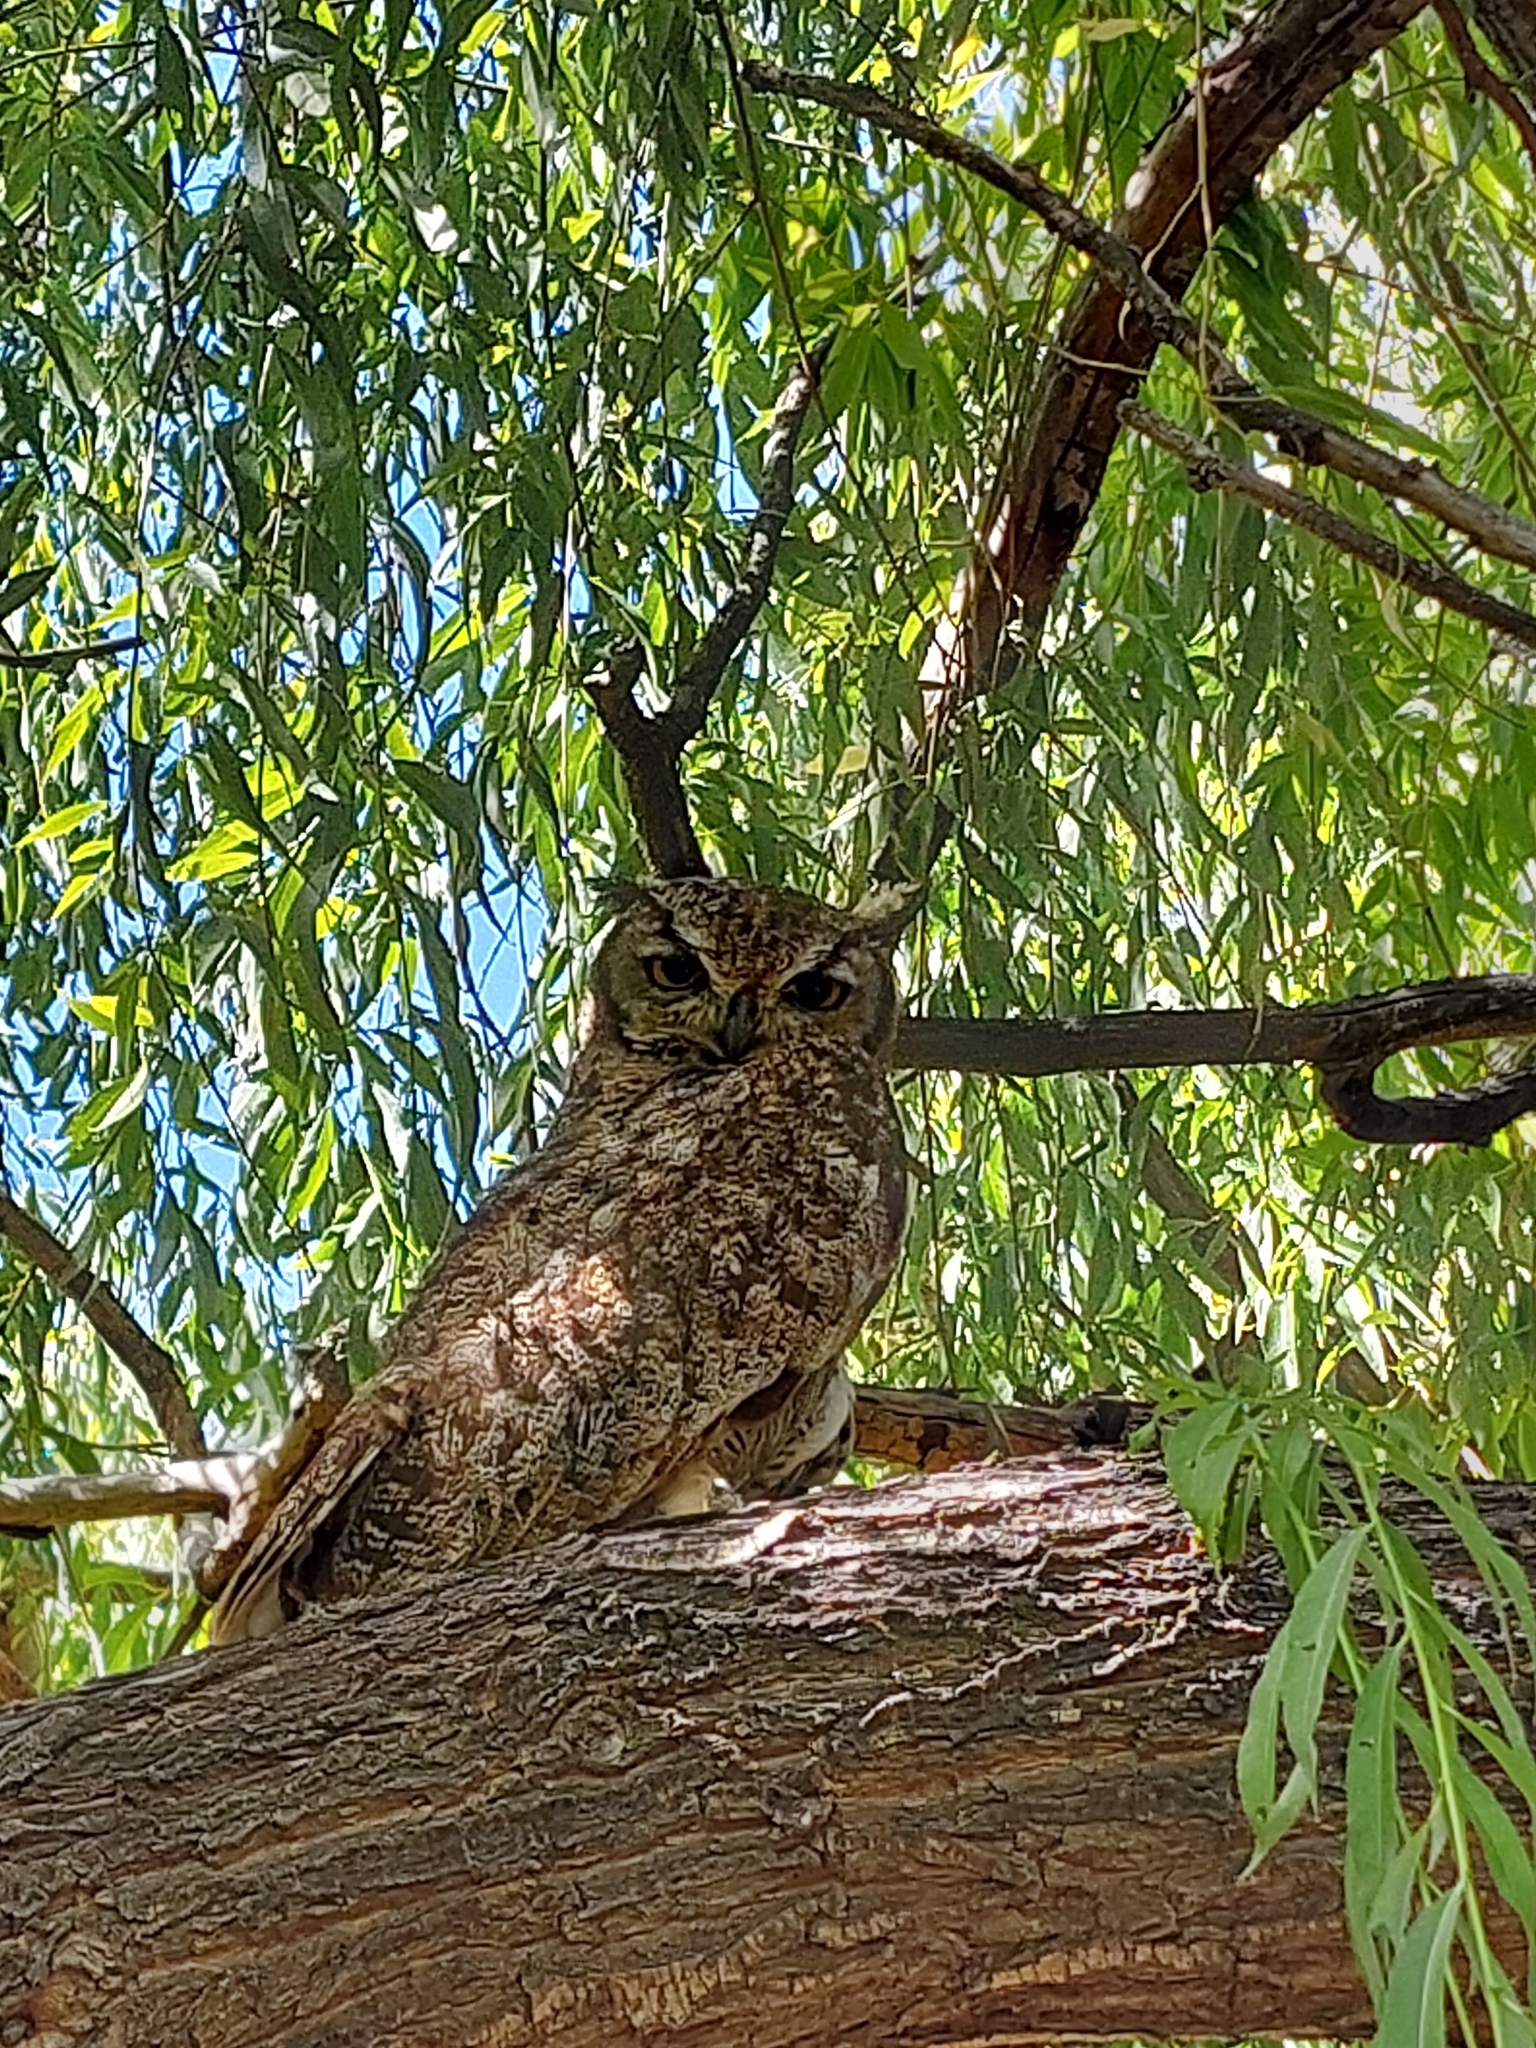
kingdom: Animalia
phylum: Chordata
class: Aves
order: Strigiformes
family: Strigidae
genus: Bubo
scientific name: Bubo magellanicus
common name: Lesser horned owl
